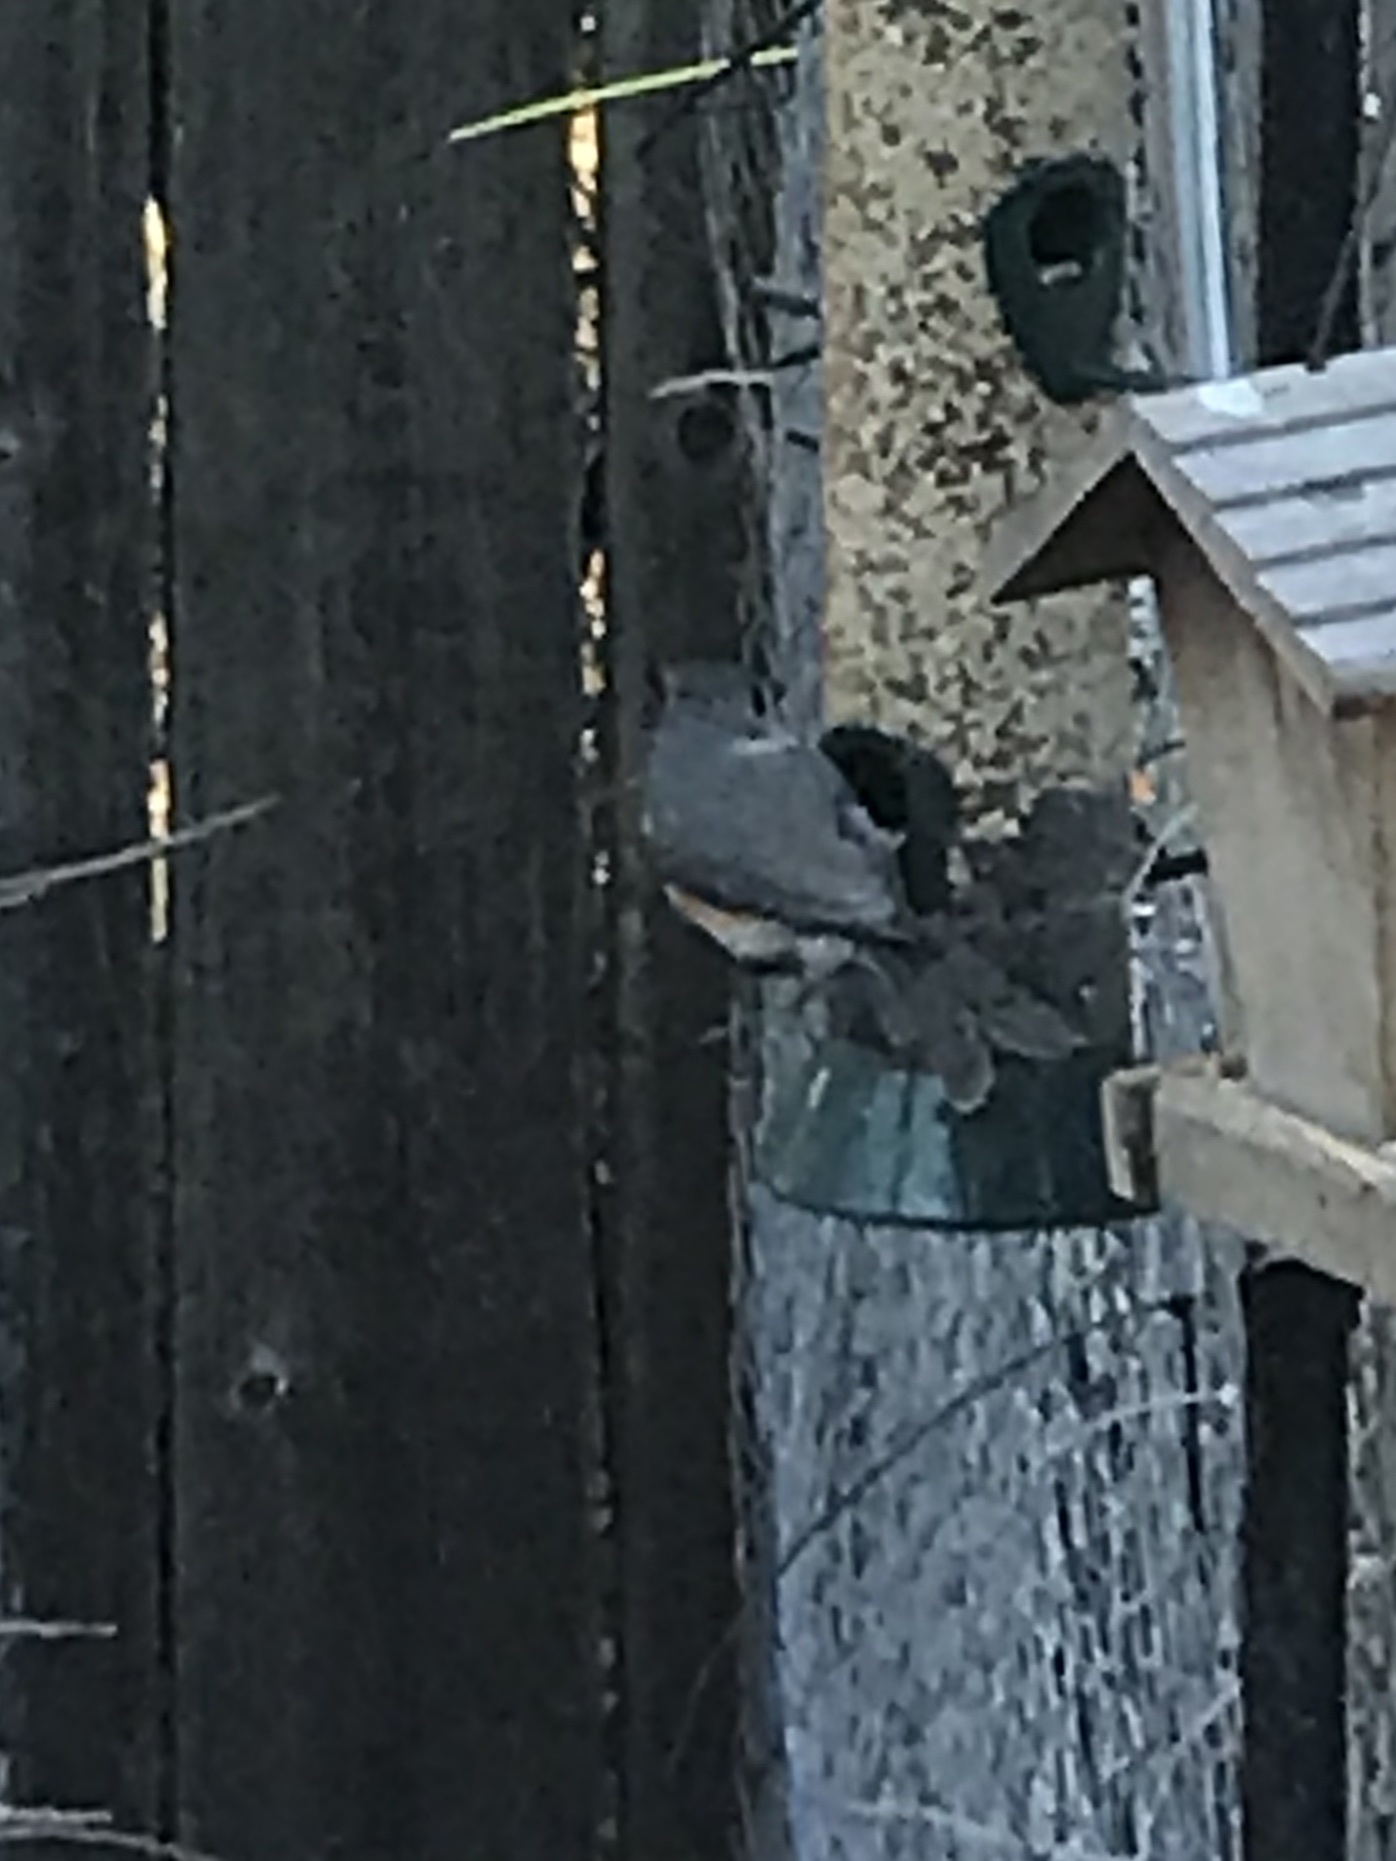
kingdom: Animalia
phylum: Chordata
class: Aves
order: Passeriformes
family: Paridae
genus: Baeolophus
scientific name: Baeolophus bicolor
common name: Tufted titmouse
